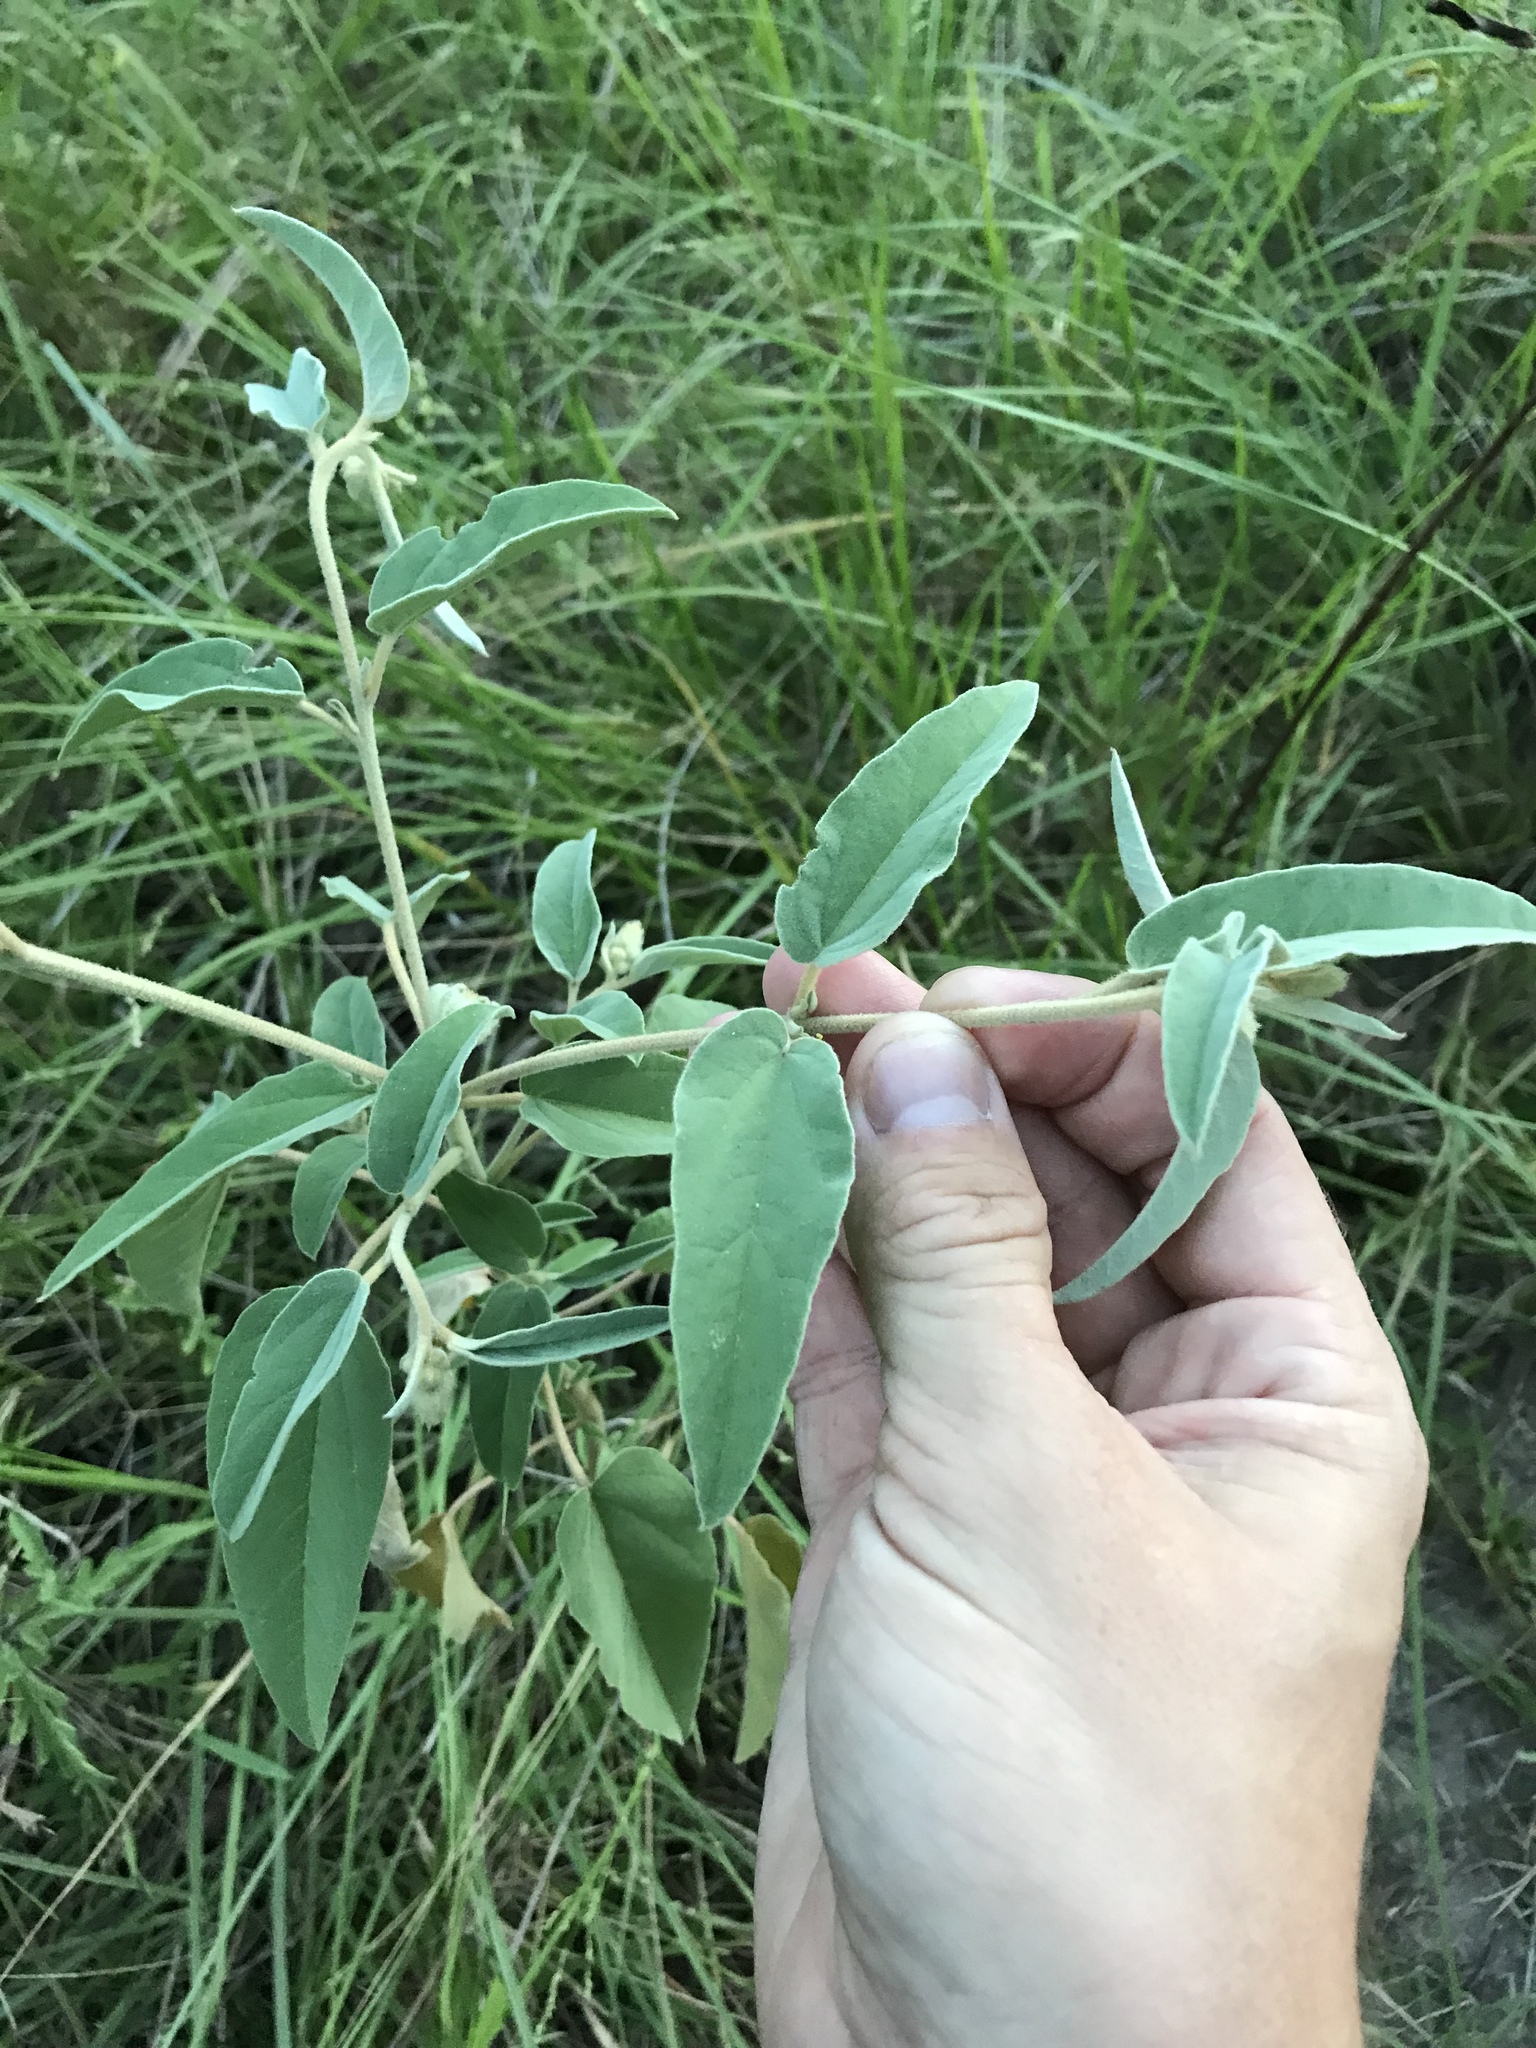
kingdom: Plantae
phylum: Tracheophyta
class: Magnoliopsida
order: Malpighiales
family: Euphorbiaceae
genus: Croton
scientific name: Croton lindheimeri
